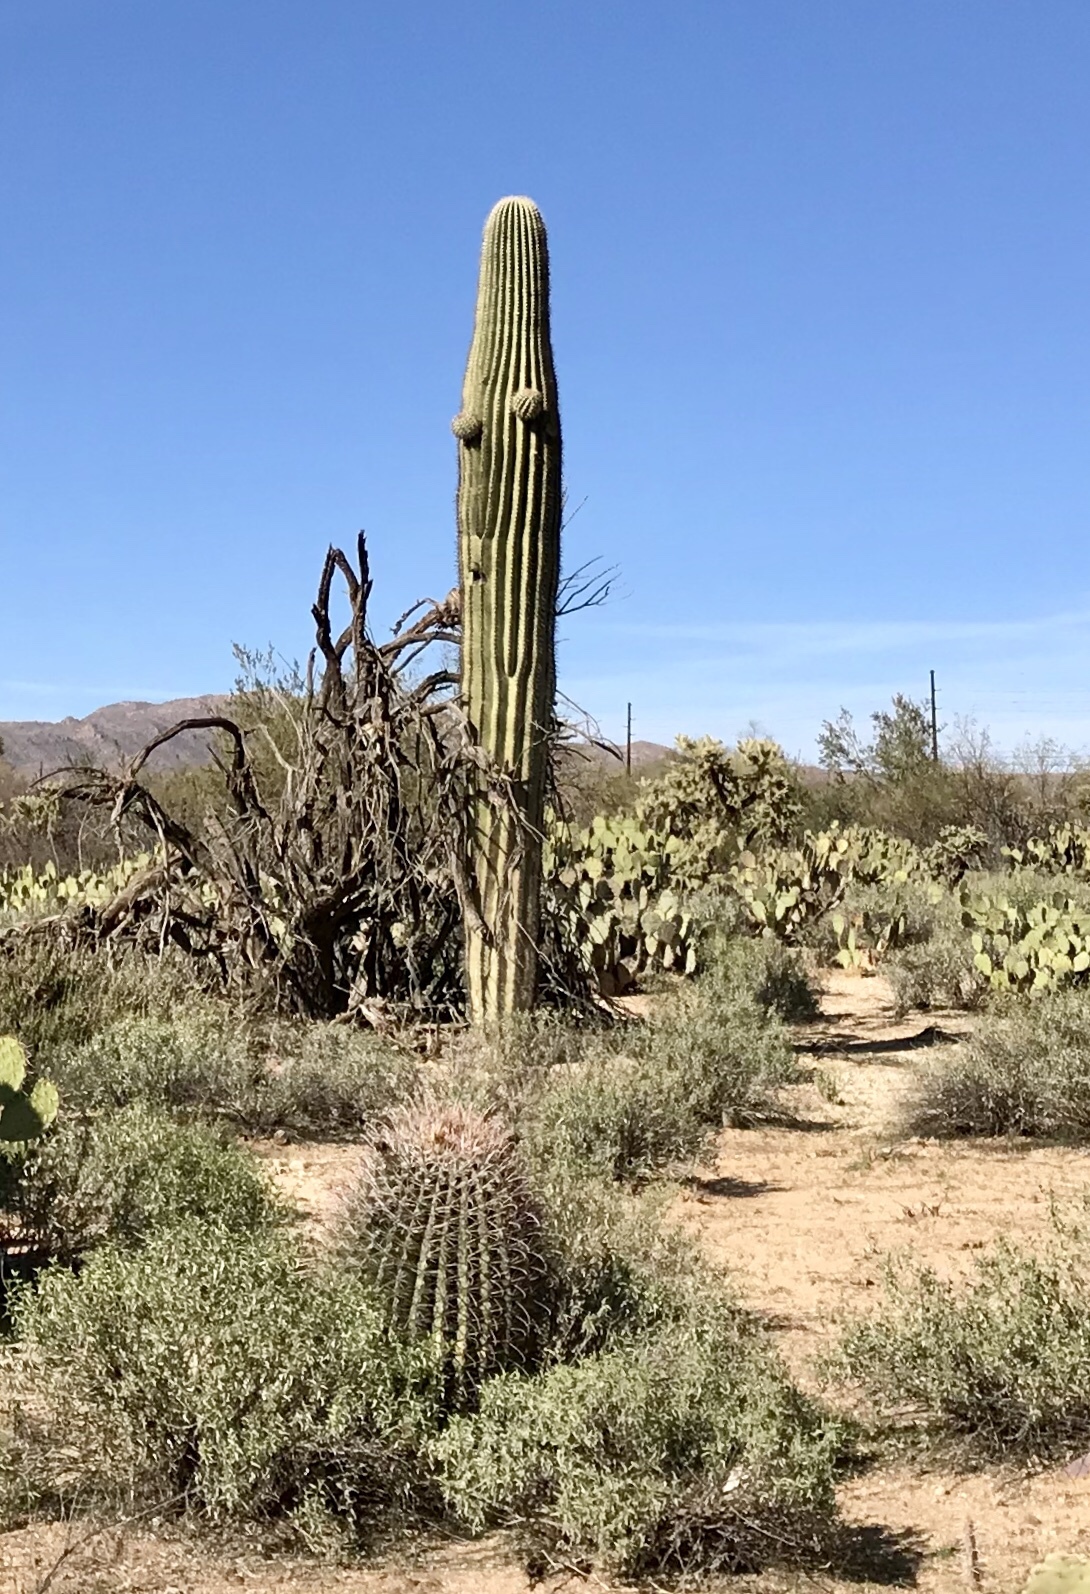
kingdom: Plantae
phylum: Tracheophyta
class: Magnoliopsida
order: Caryophyllales
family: Cactaceae
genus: Carnegiea
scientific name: Carnegiea gigantea
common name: Saguaro
